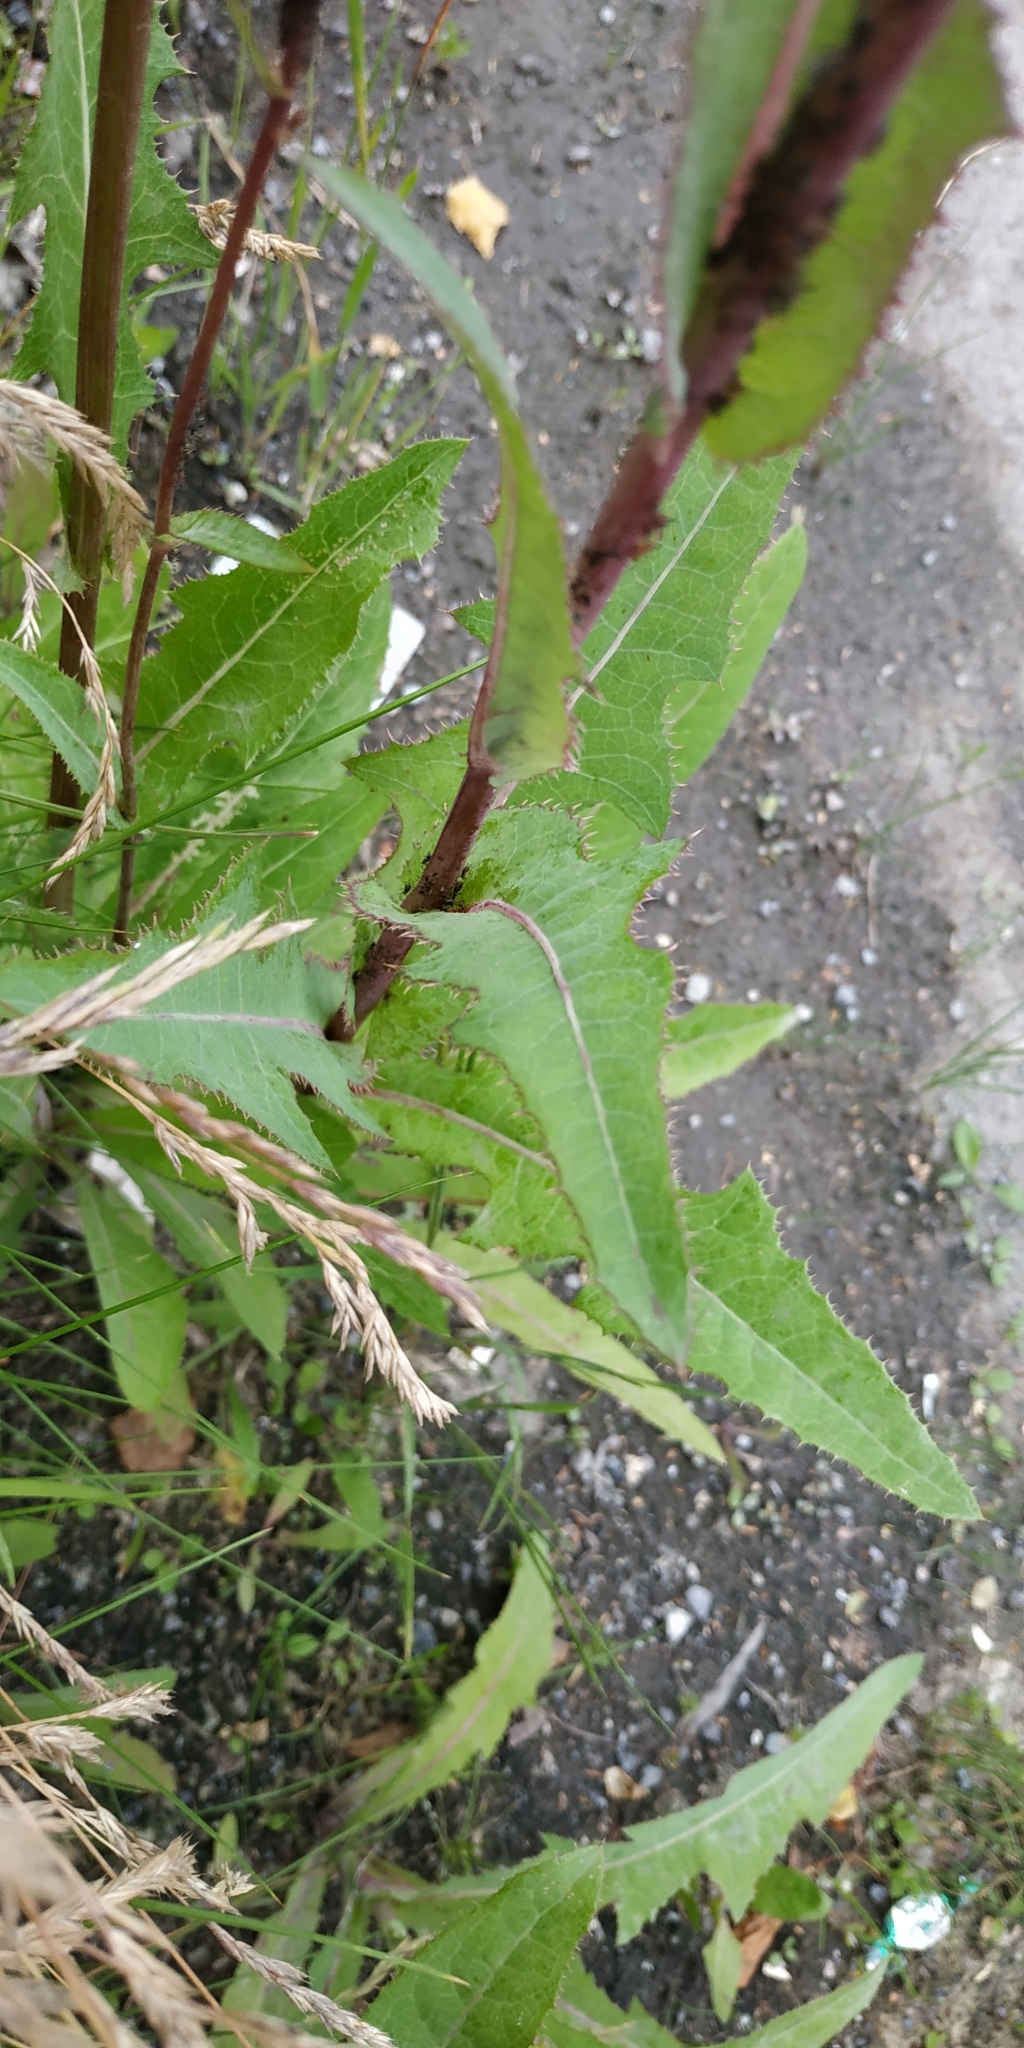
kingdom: Plantae
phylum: Tracheophyta
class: Magnoliopsida
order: Asterales
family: Asteraceae
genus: Sonchus
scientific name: Sonchus arvensis
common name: Perennial sow-thistle
